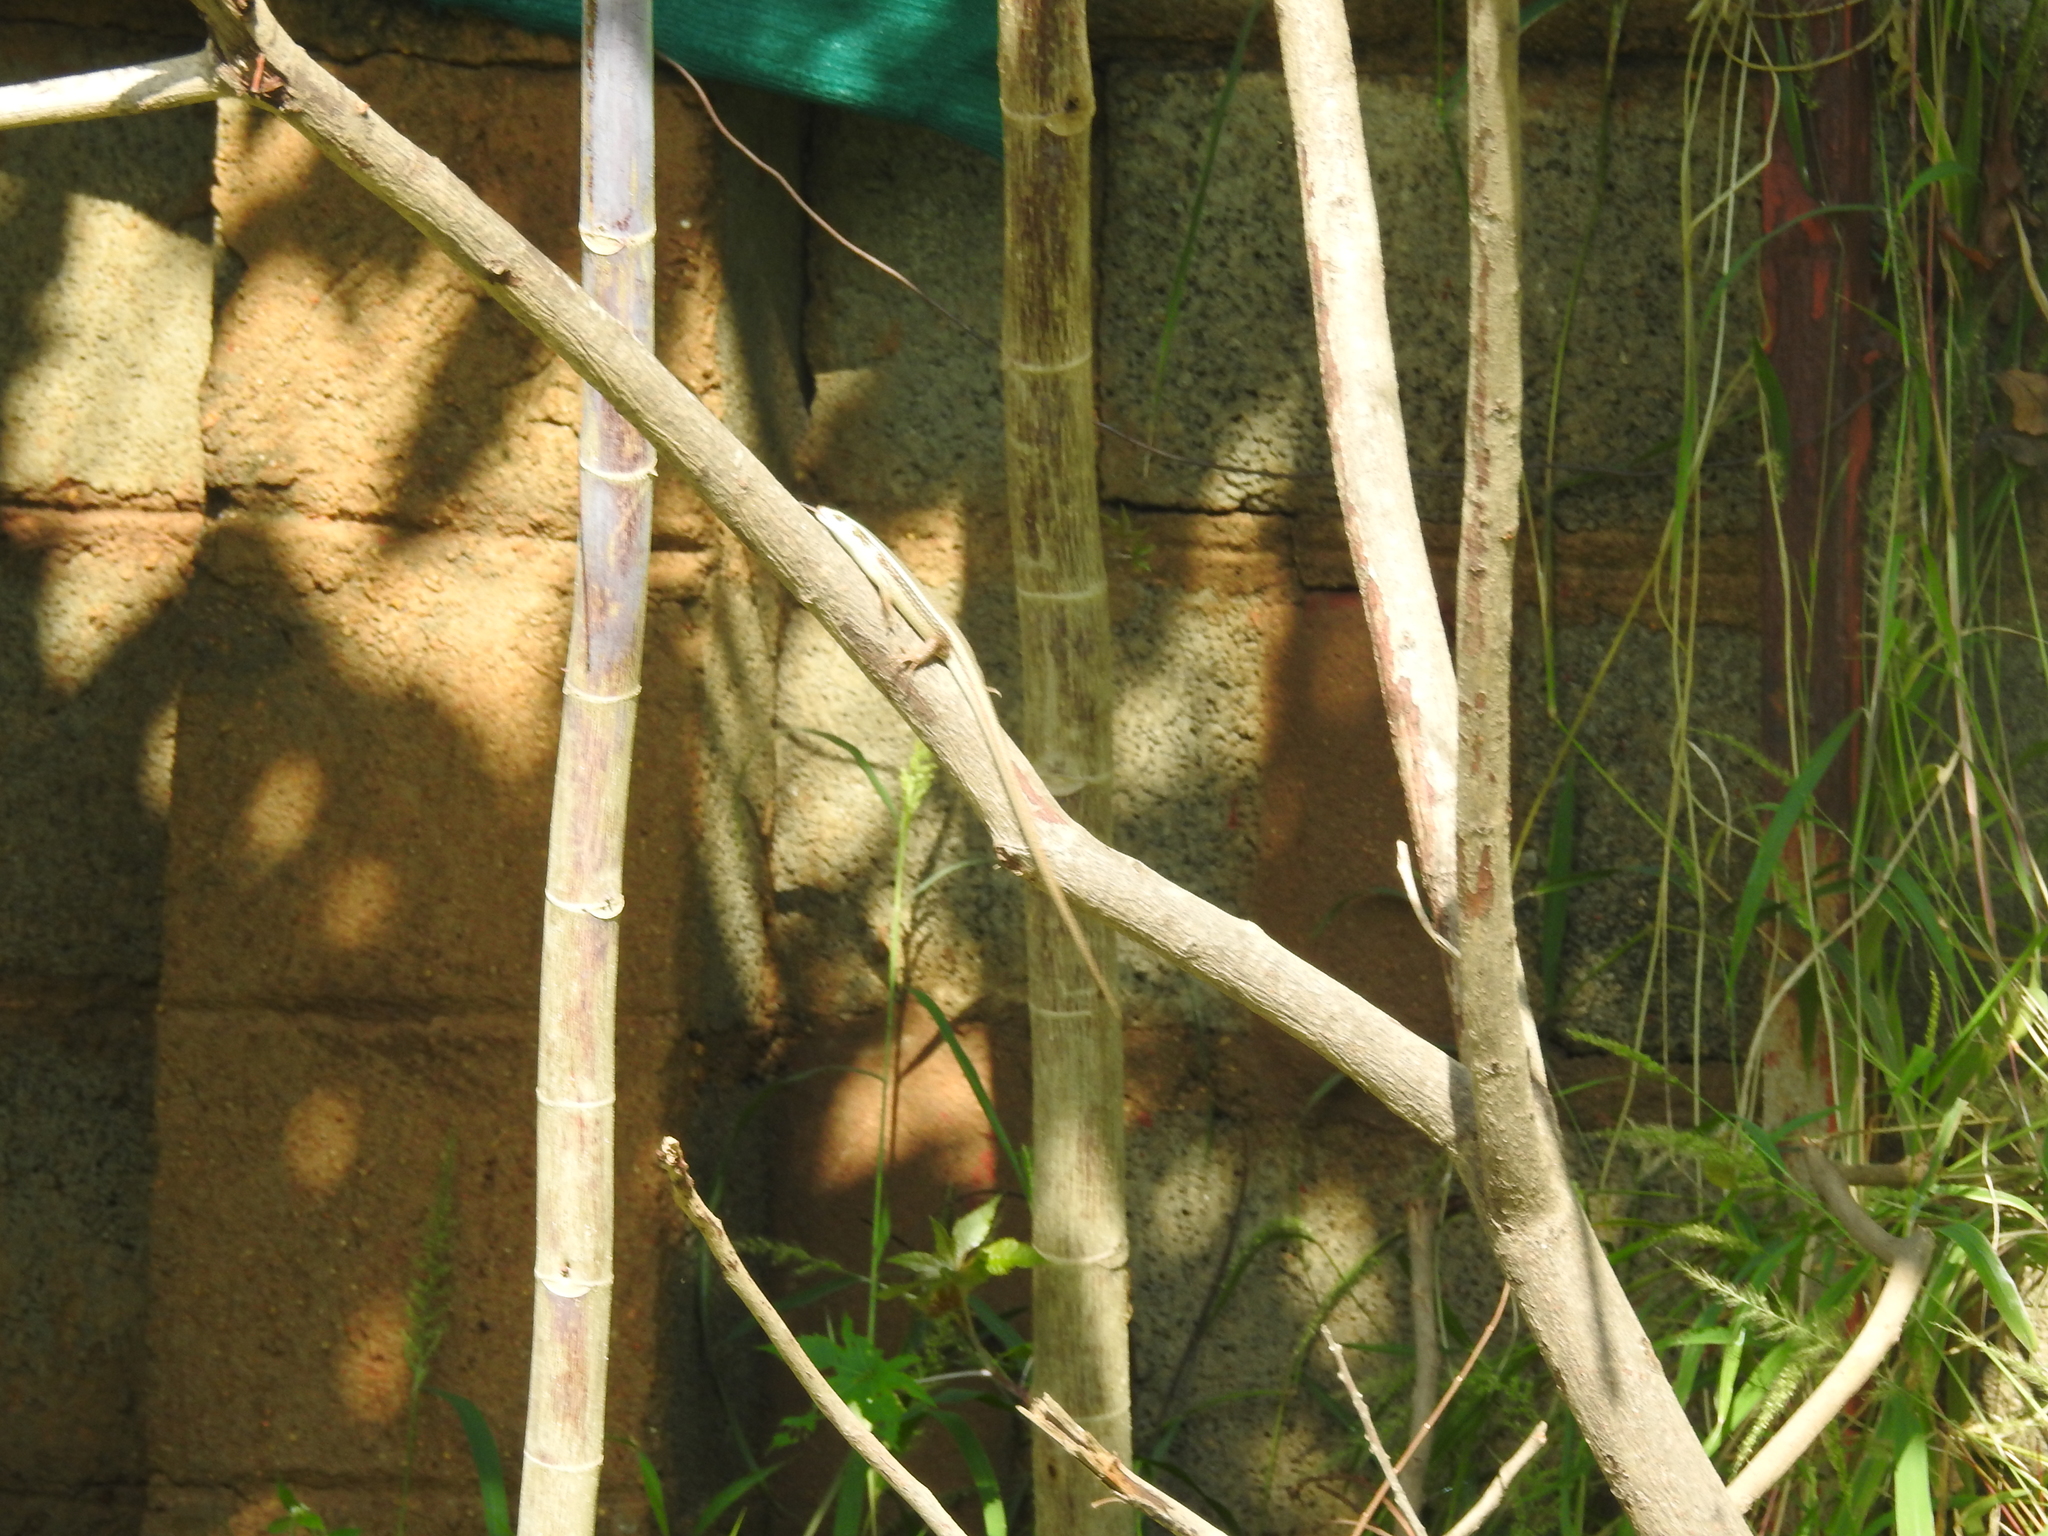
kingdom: Animalia
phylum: Chordata
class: Squamata
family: Scincidae
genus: Eutropis
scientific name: Eutropis carinata
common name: Keeled indian mabuya
